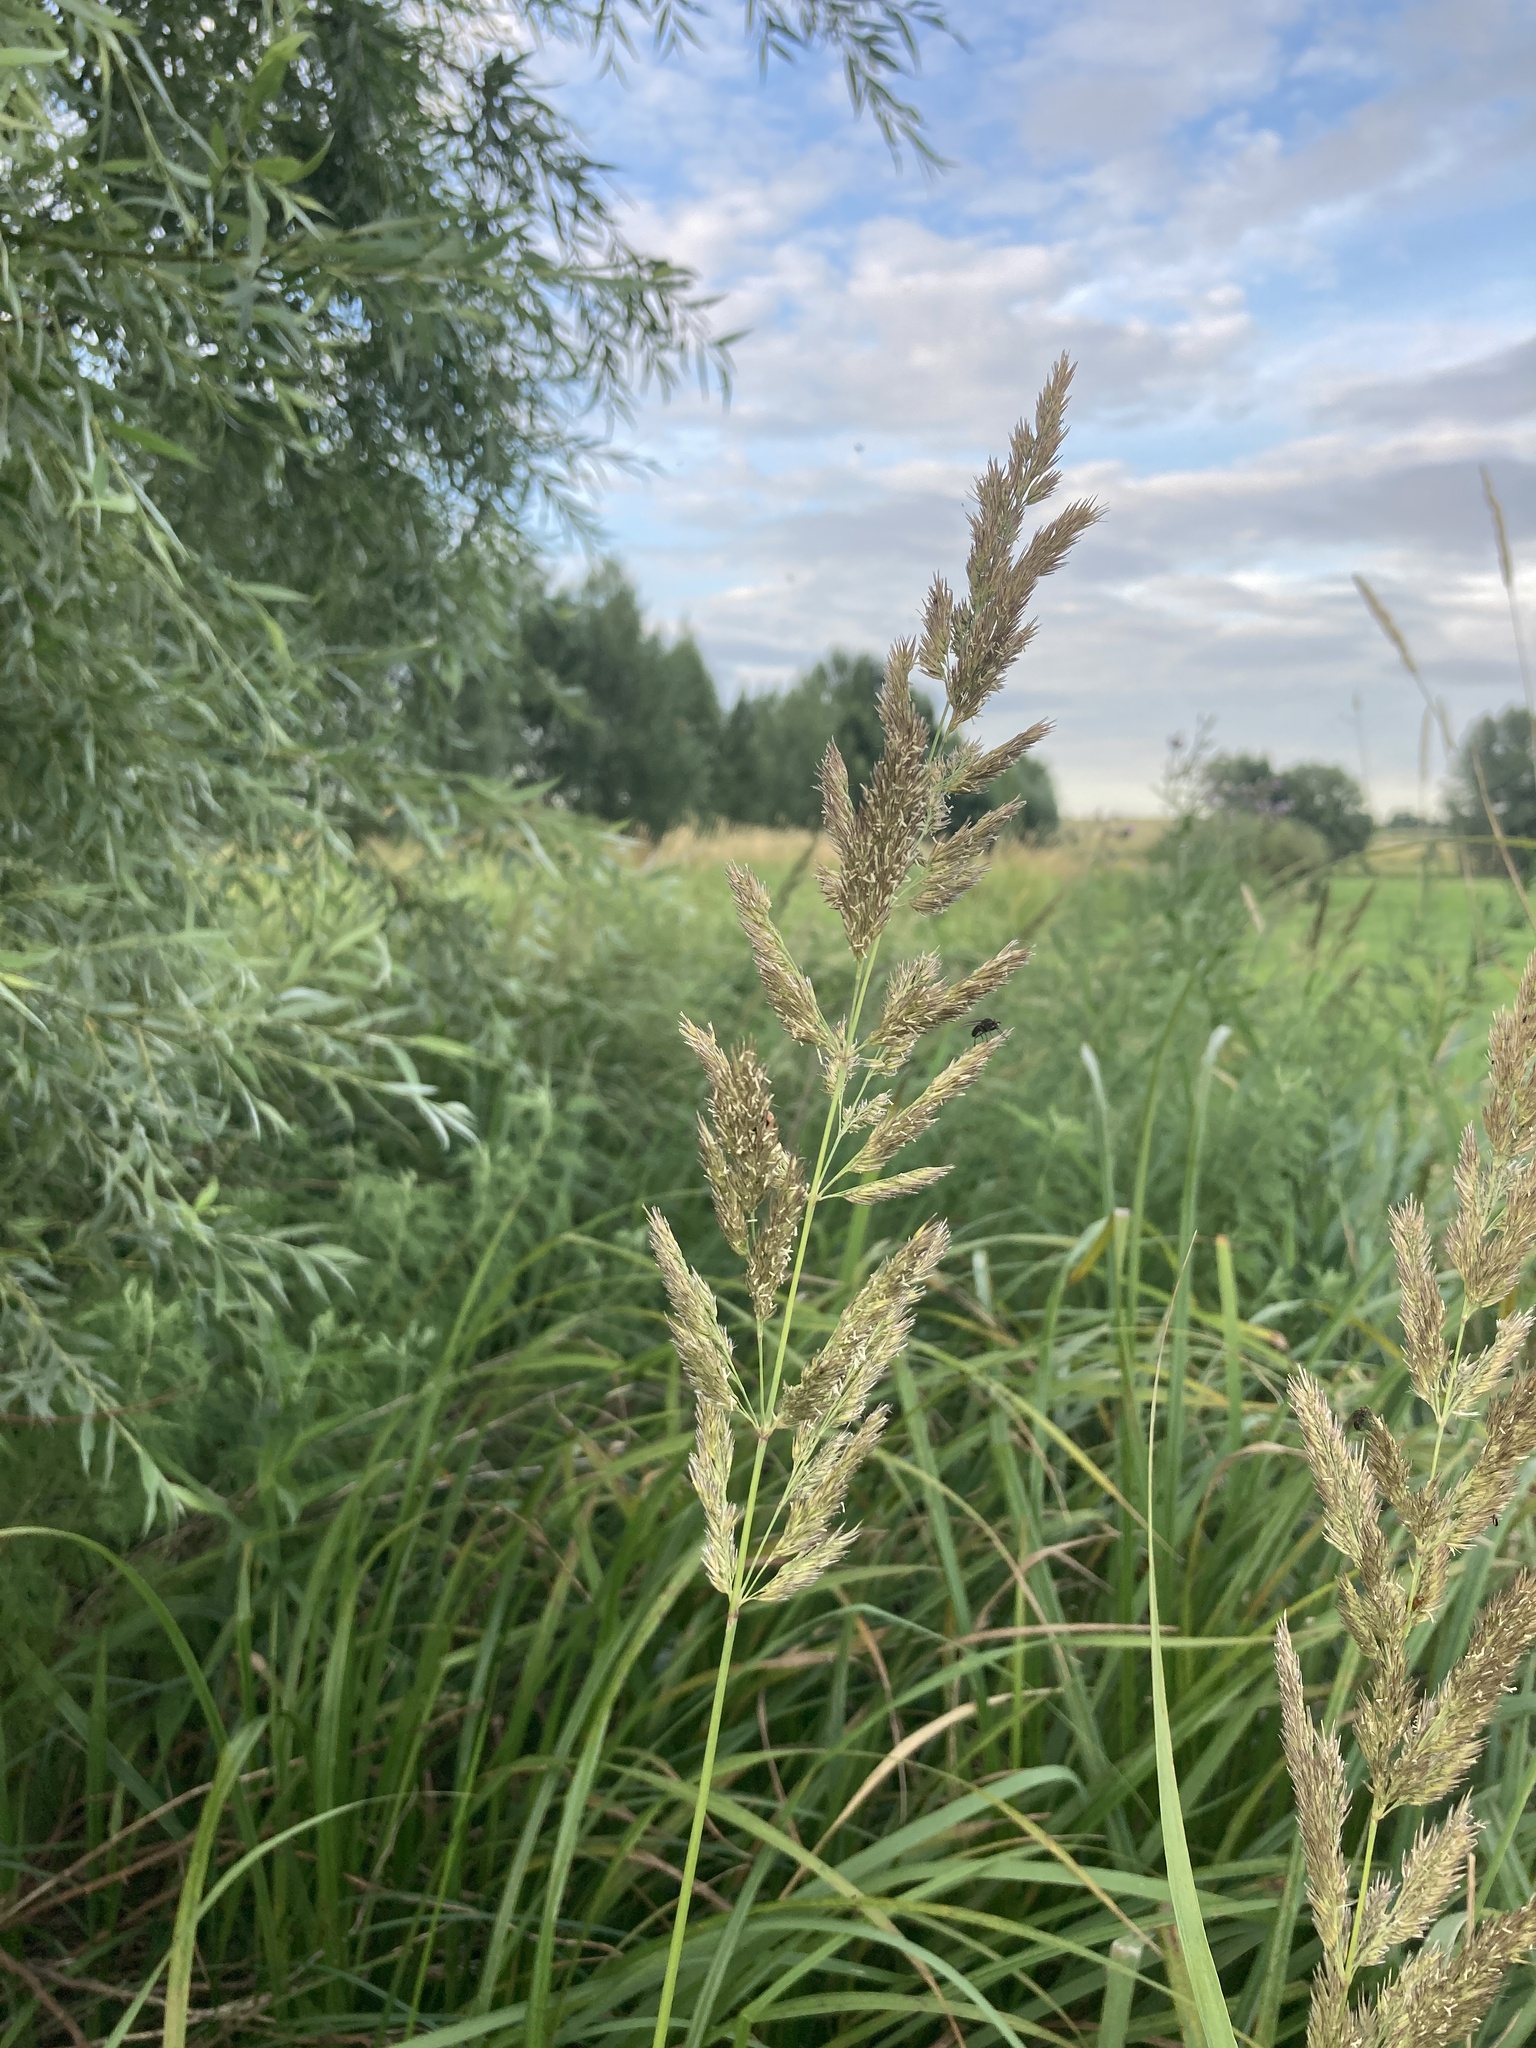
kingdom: Plantae
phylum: Tracheophyta
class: Liliopsida
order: Poales
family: Poaceae
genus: Calamagrostis
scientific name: Calamagrostis epigejos
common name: Wood small-reed
